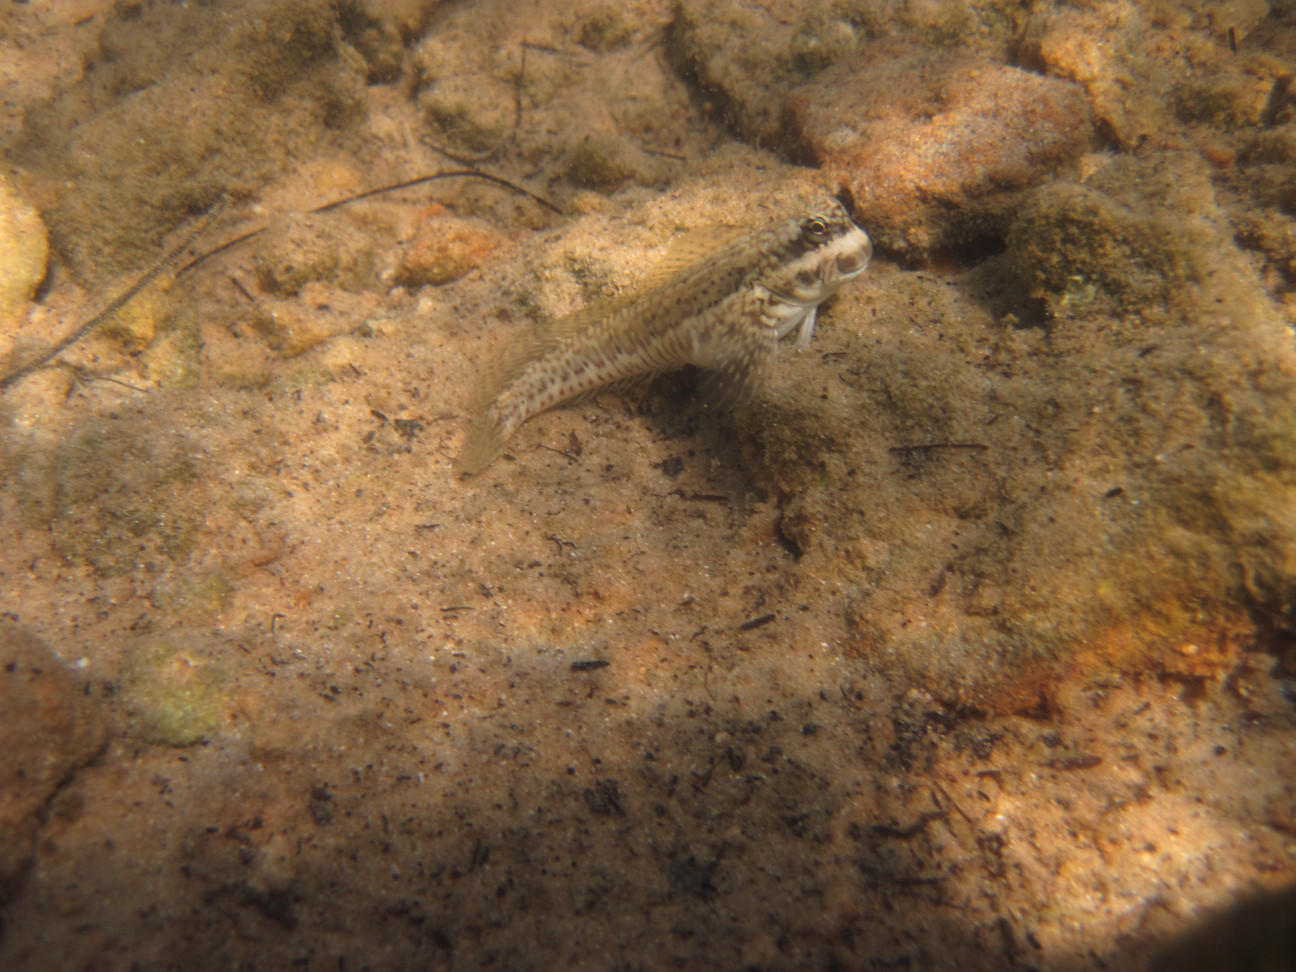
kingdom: Animalia
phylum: Chordata
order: Perciformes
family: Blenniidae
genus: Istiblennius
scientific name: Istiblennius dussumieri
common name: Dussumier's rockskipper
